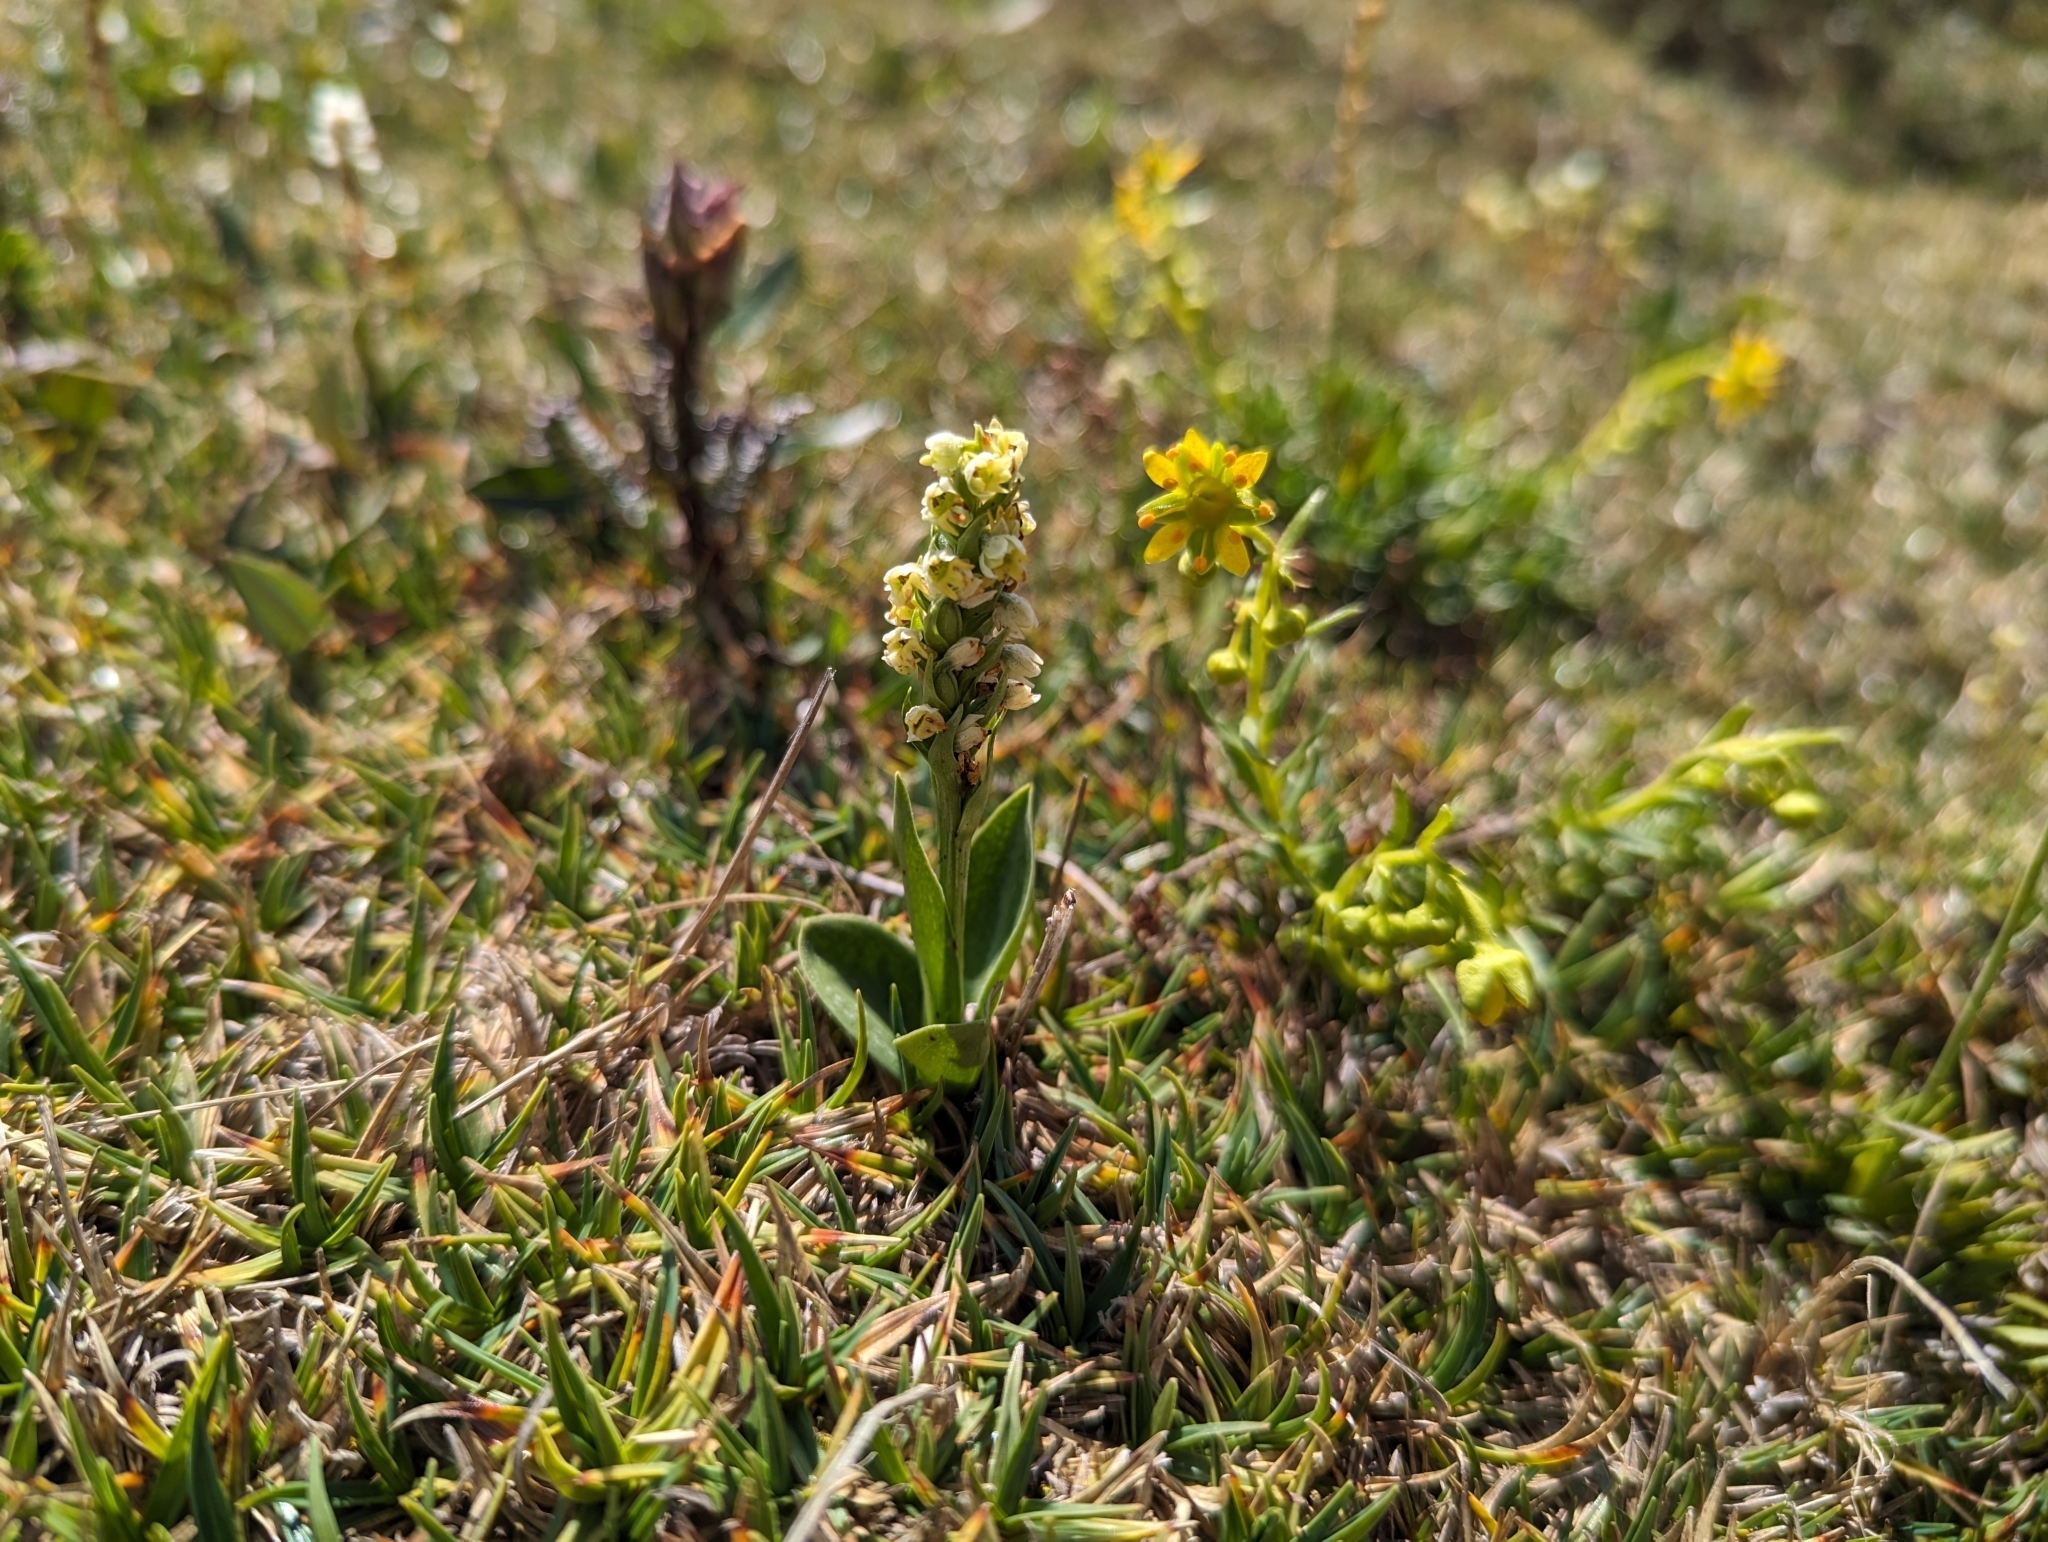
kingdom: Plantae
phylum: Tracheophyta
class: Liliopsida
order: Asparagales
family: Orchidaceae
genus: Pseudorchis
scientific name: Pseudorchis albida
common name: Small-white orchid
